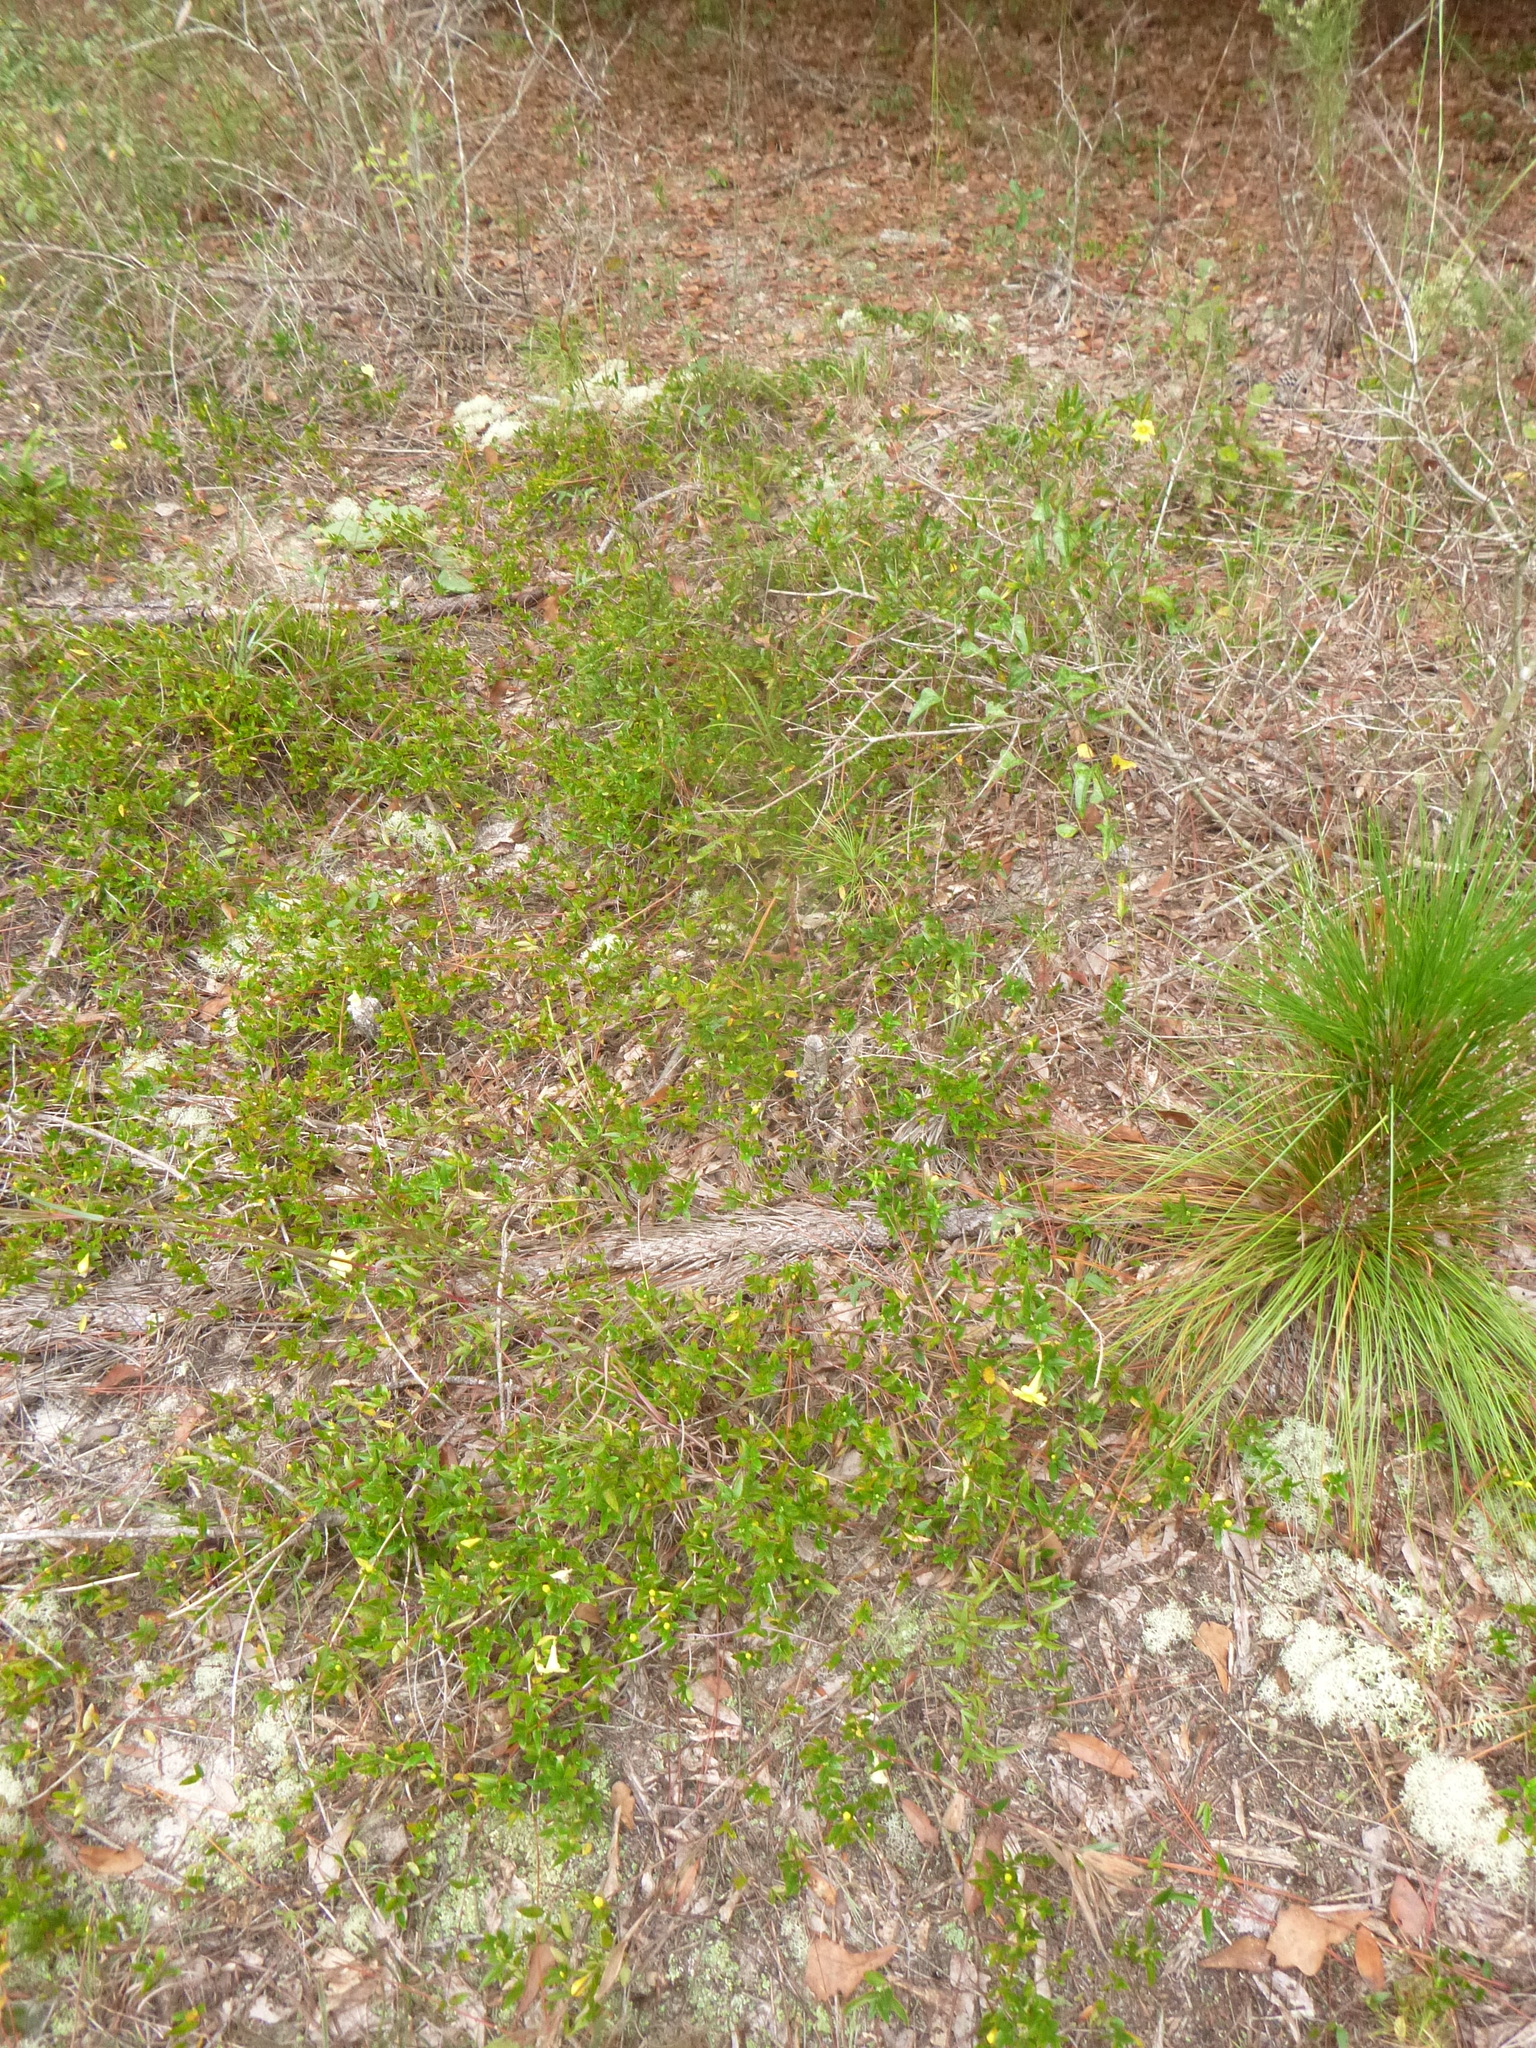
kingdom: Plantae
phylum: Tracheophyta
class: Magnoliopsida
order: Gentianales
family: Gelsemiaceae
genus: Gelsemium
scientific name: Gelsemium sempervirens
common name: Carolina-jasmine
